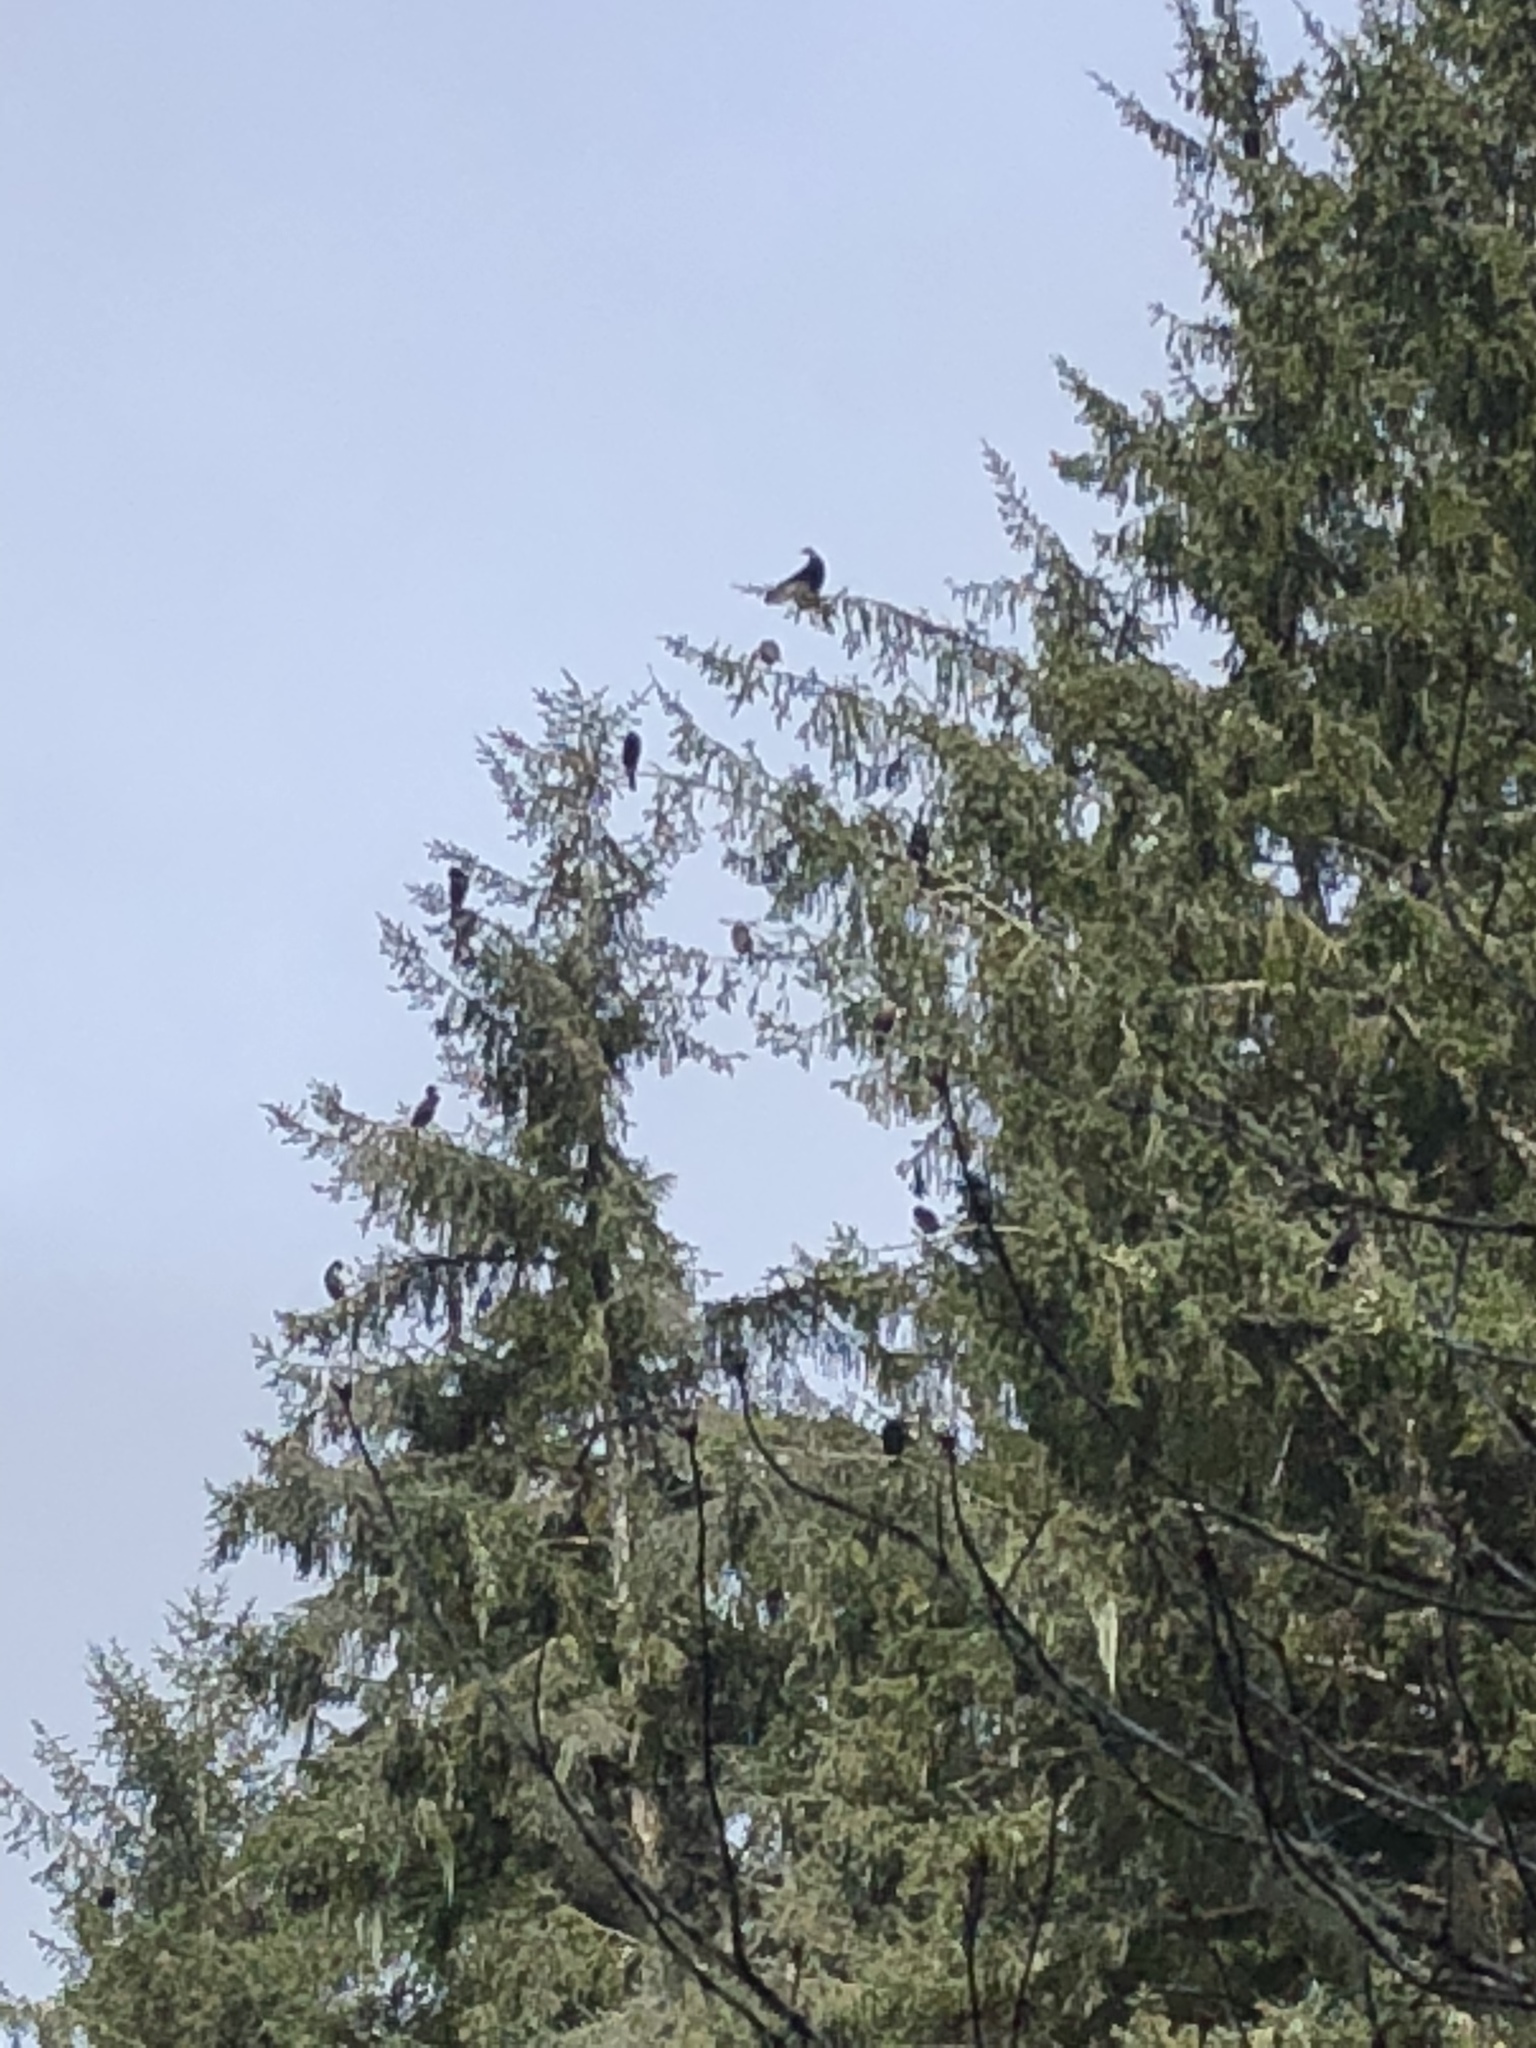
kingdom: Animalia
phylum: Chordata
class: Aves
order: Suliformes
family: Phalacrocoracidae
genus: Phalacrocorax
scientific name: Phalacrocorax auritus
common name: Double-crested cormorant
